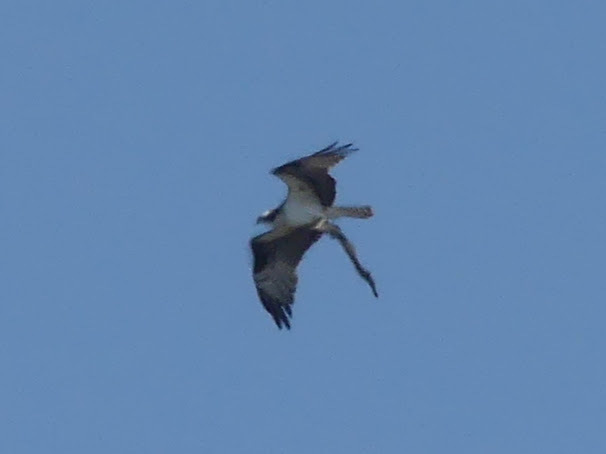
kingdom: Animalia
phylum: Chordata
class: Aves
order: Accipitriformes
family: Pandionidae
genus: Pandion
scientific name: Pandion haliaetus
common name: Osprey
